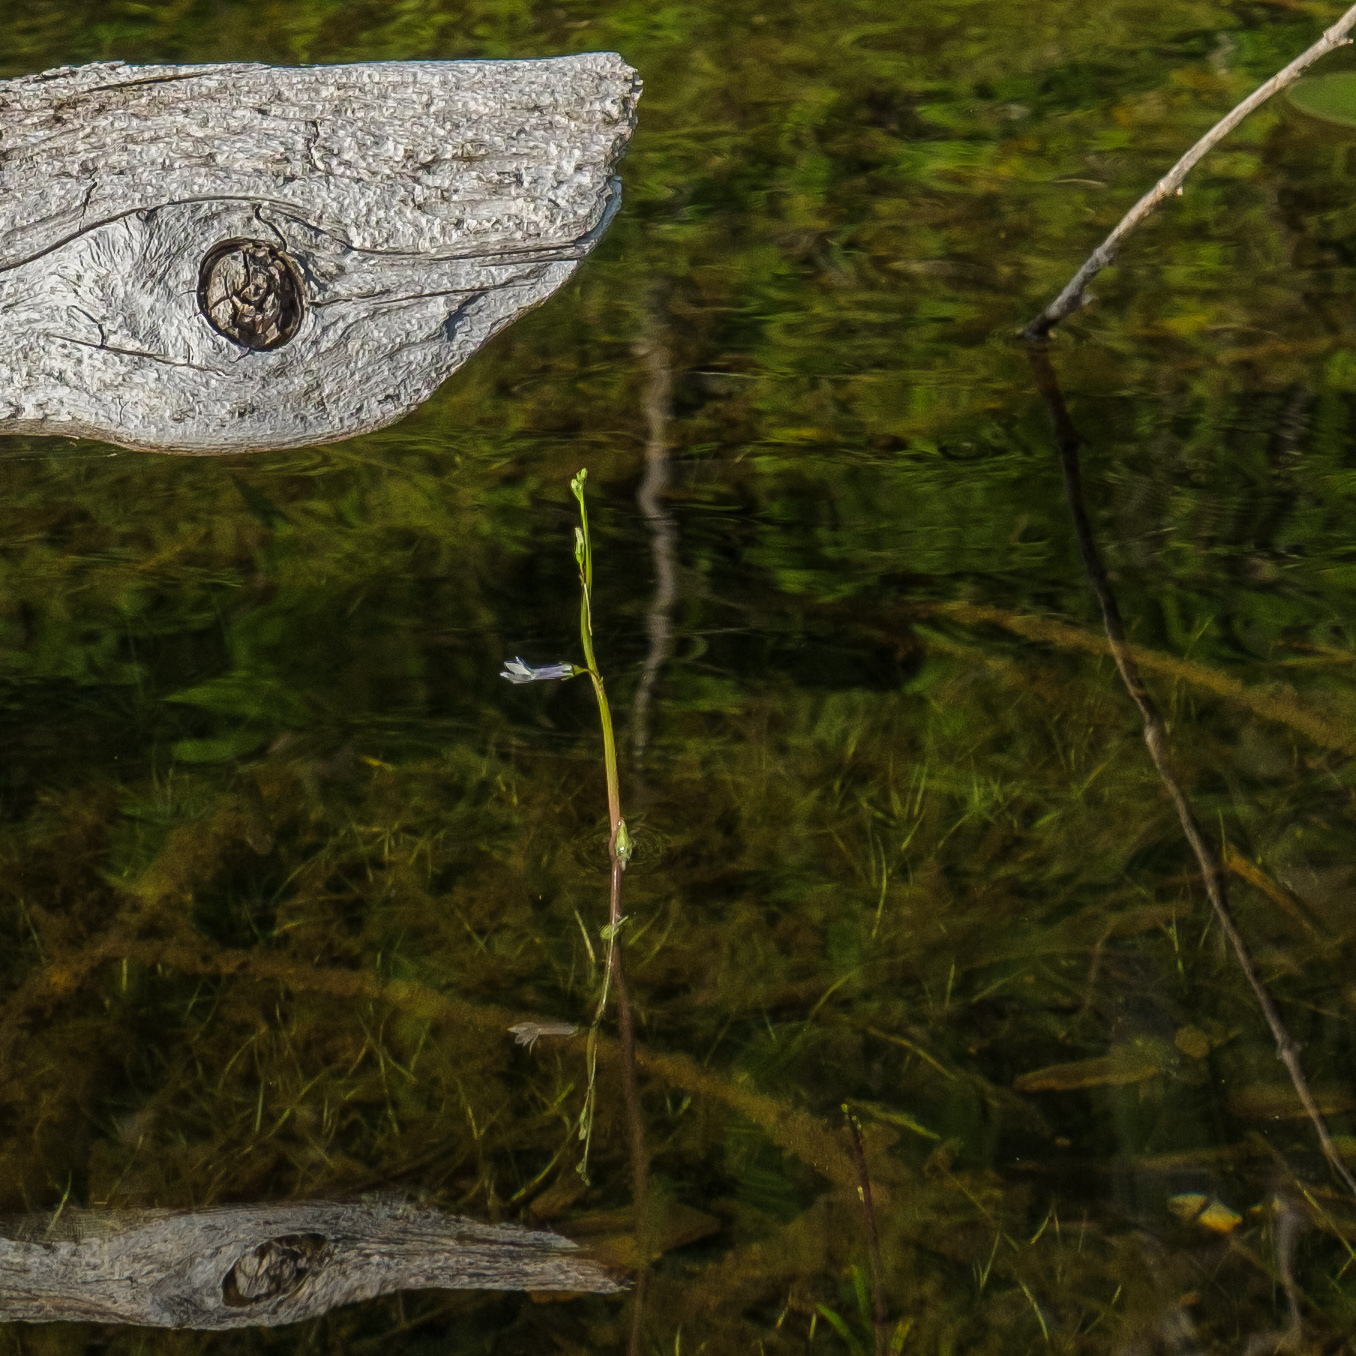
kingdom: Plantae
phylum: Tracheophyta
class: Magnoliopsida
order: Asterales
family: Campanulaceae
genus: Lobelia
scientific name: Lobelia dortmanna
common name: Water lobelia
